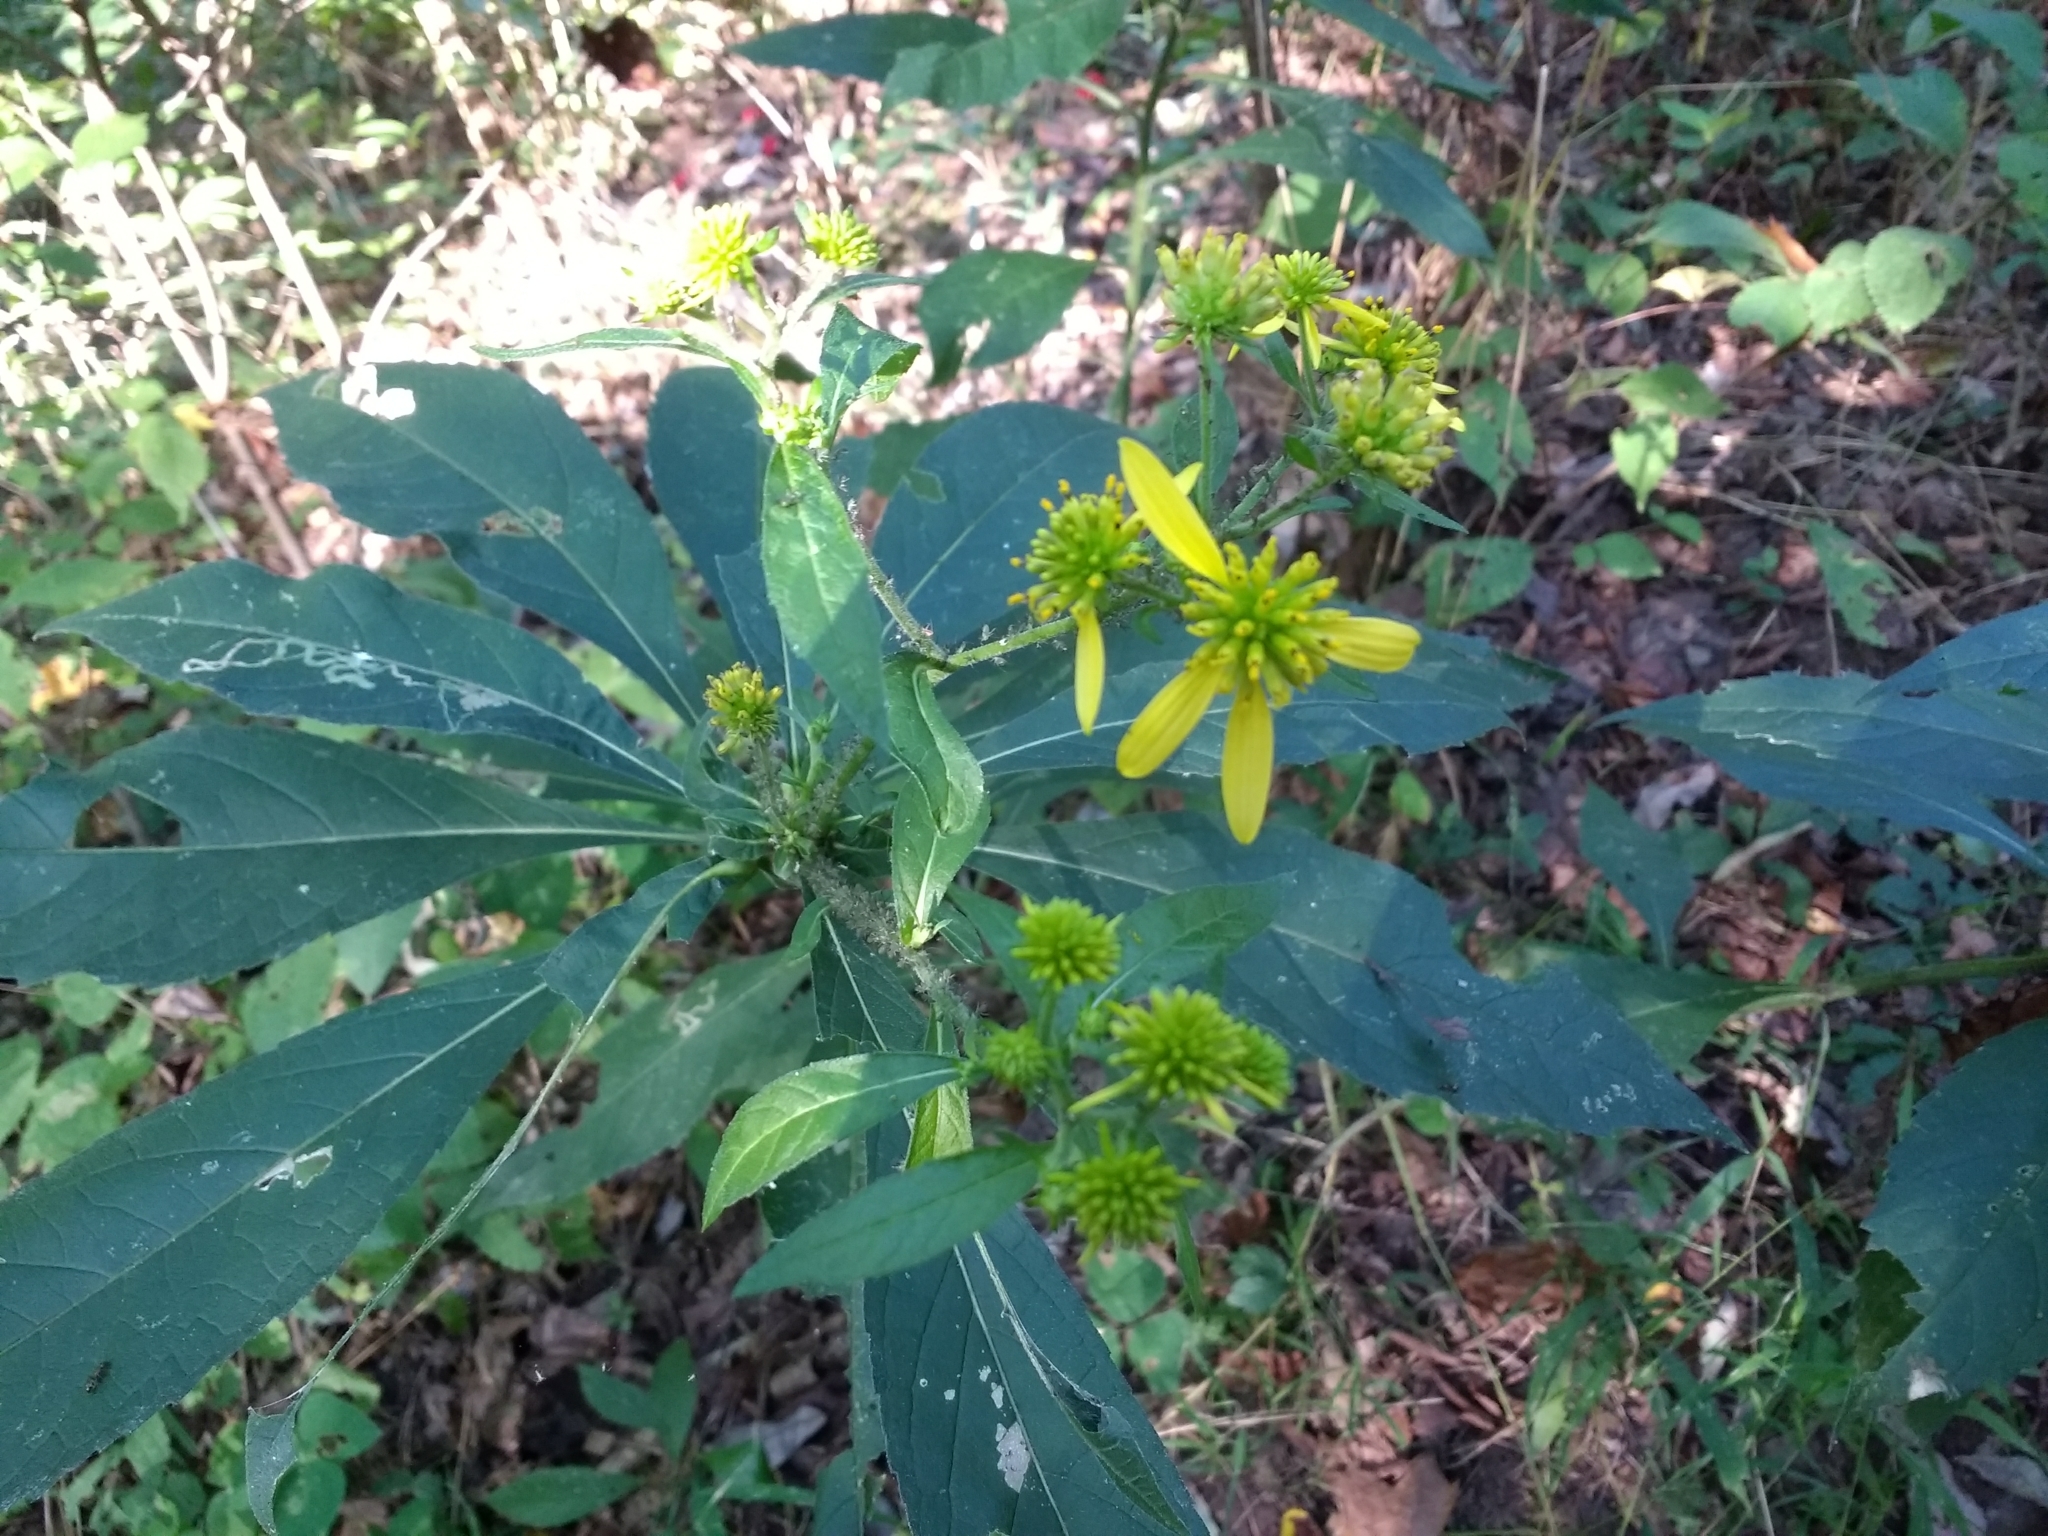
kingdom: Plantae
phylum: Tracheophyta
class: Magnoliopsida
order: Asterales
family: Asteraceae
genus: Verbesina
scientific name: Verbesina alternifolia
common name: Wingstem
